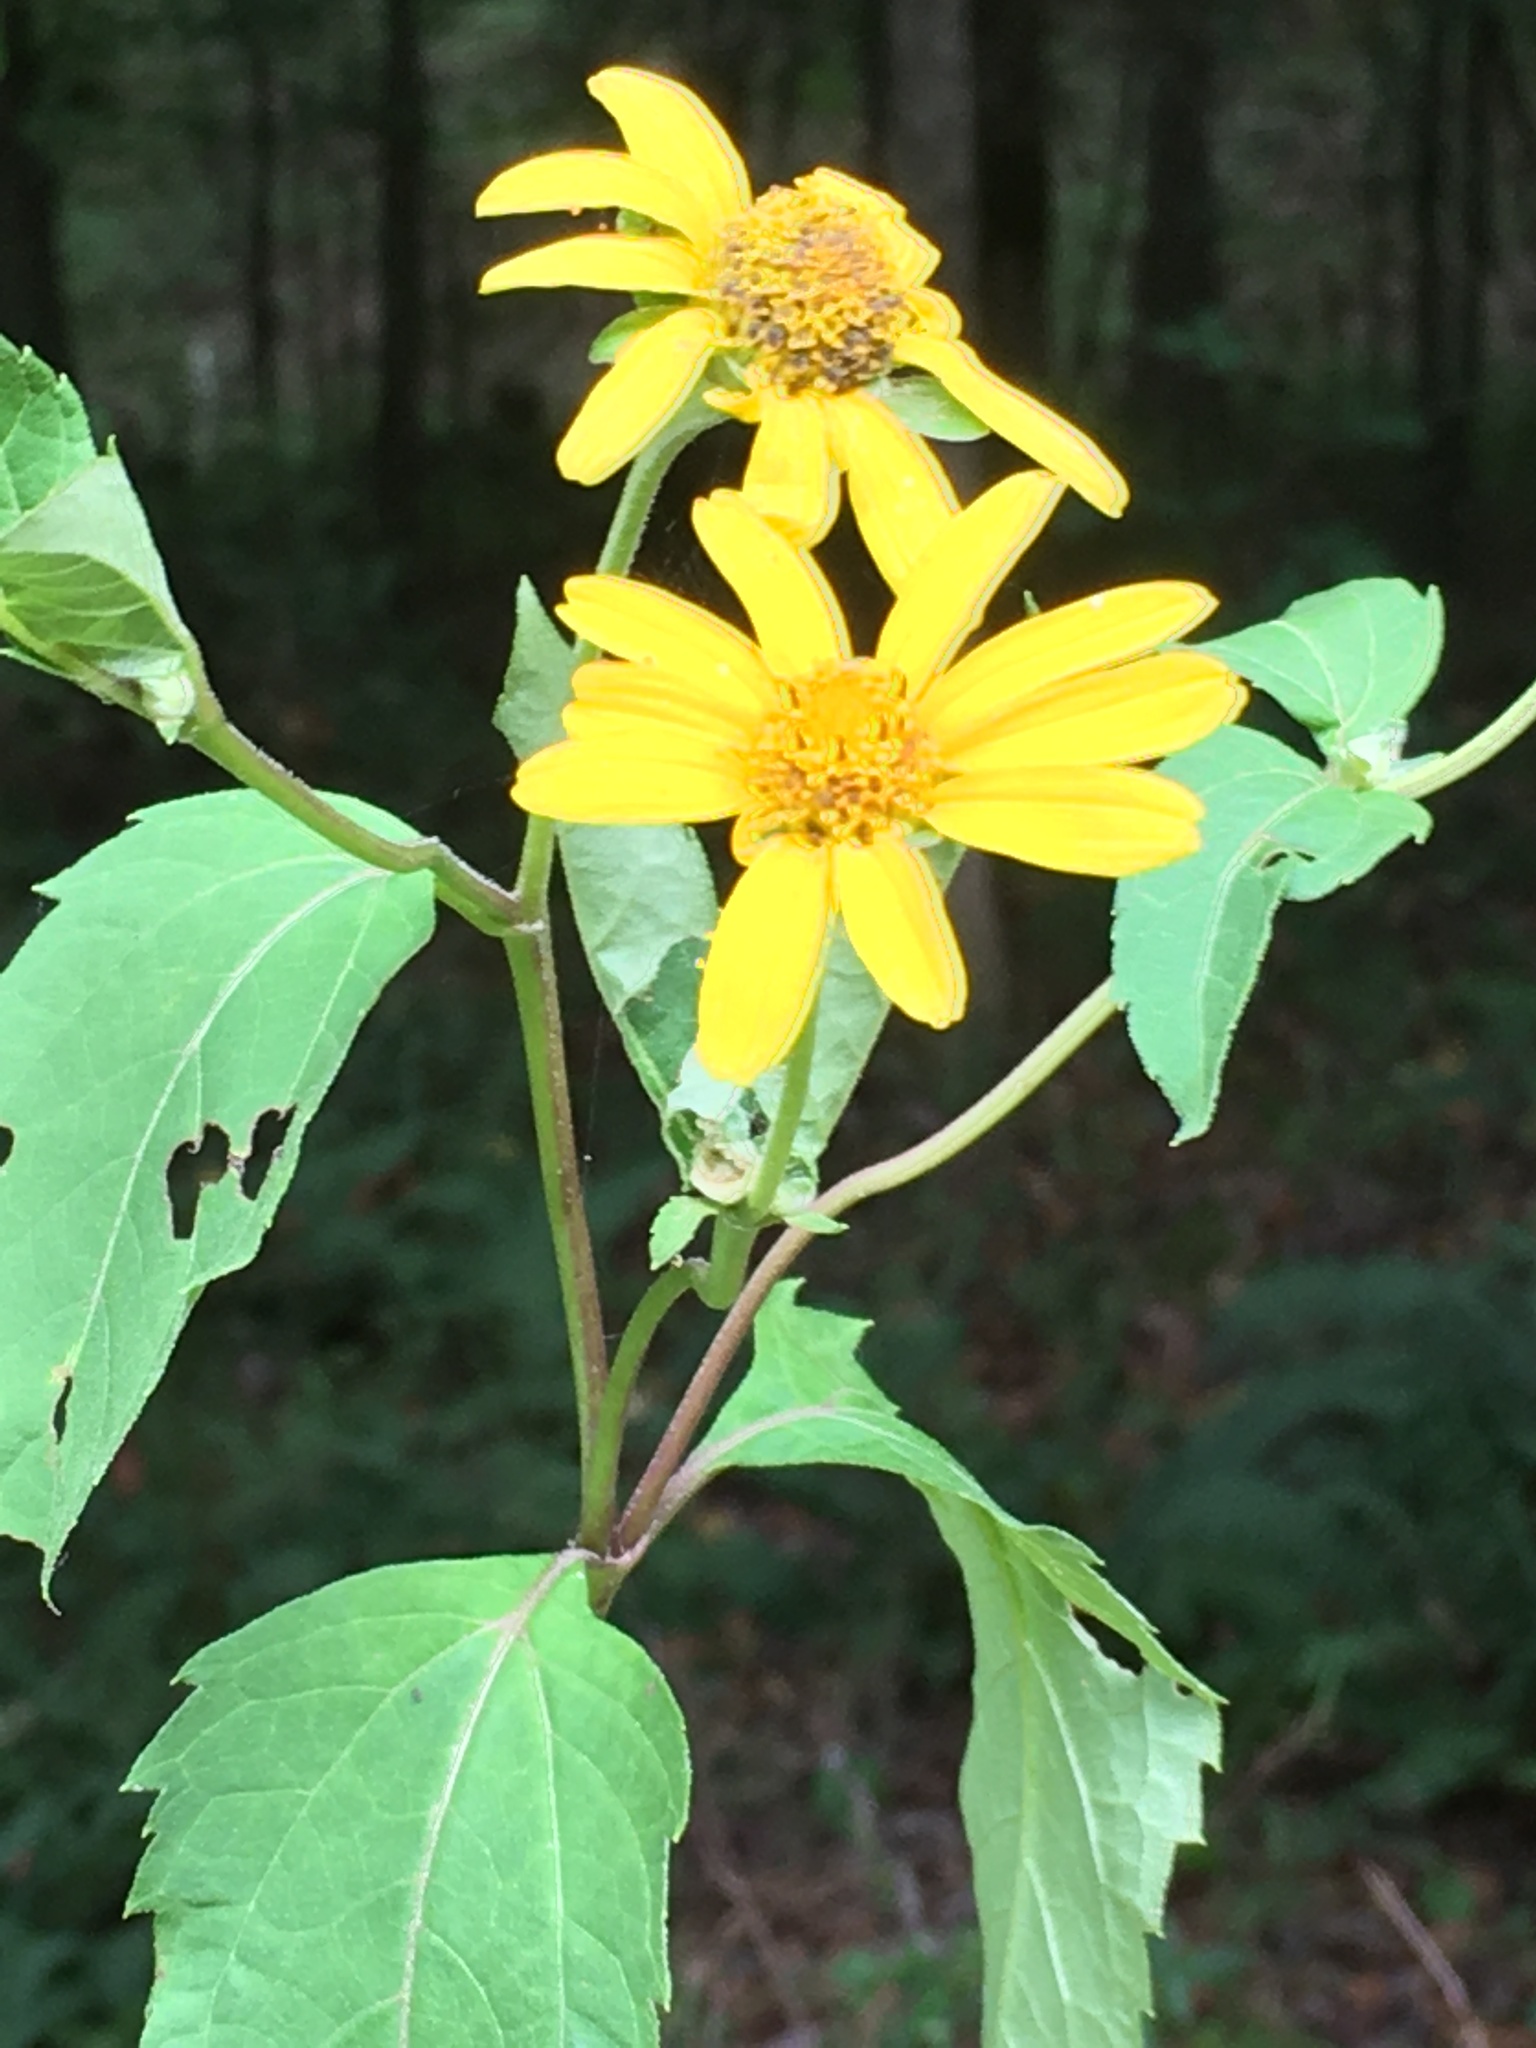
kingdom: Plantae
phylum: Tracheophyta
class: Magnoliopsida
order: Asterales
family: Asteraceae
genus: Heliopsis
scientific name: Heliopsis helianthoides
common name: False sunflower
